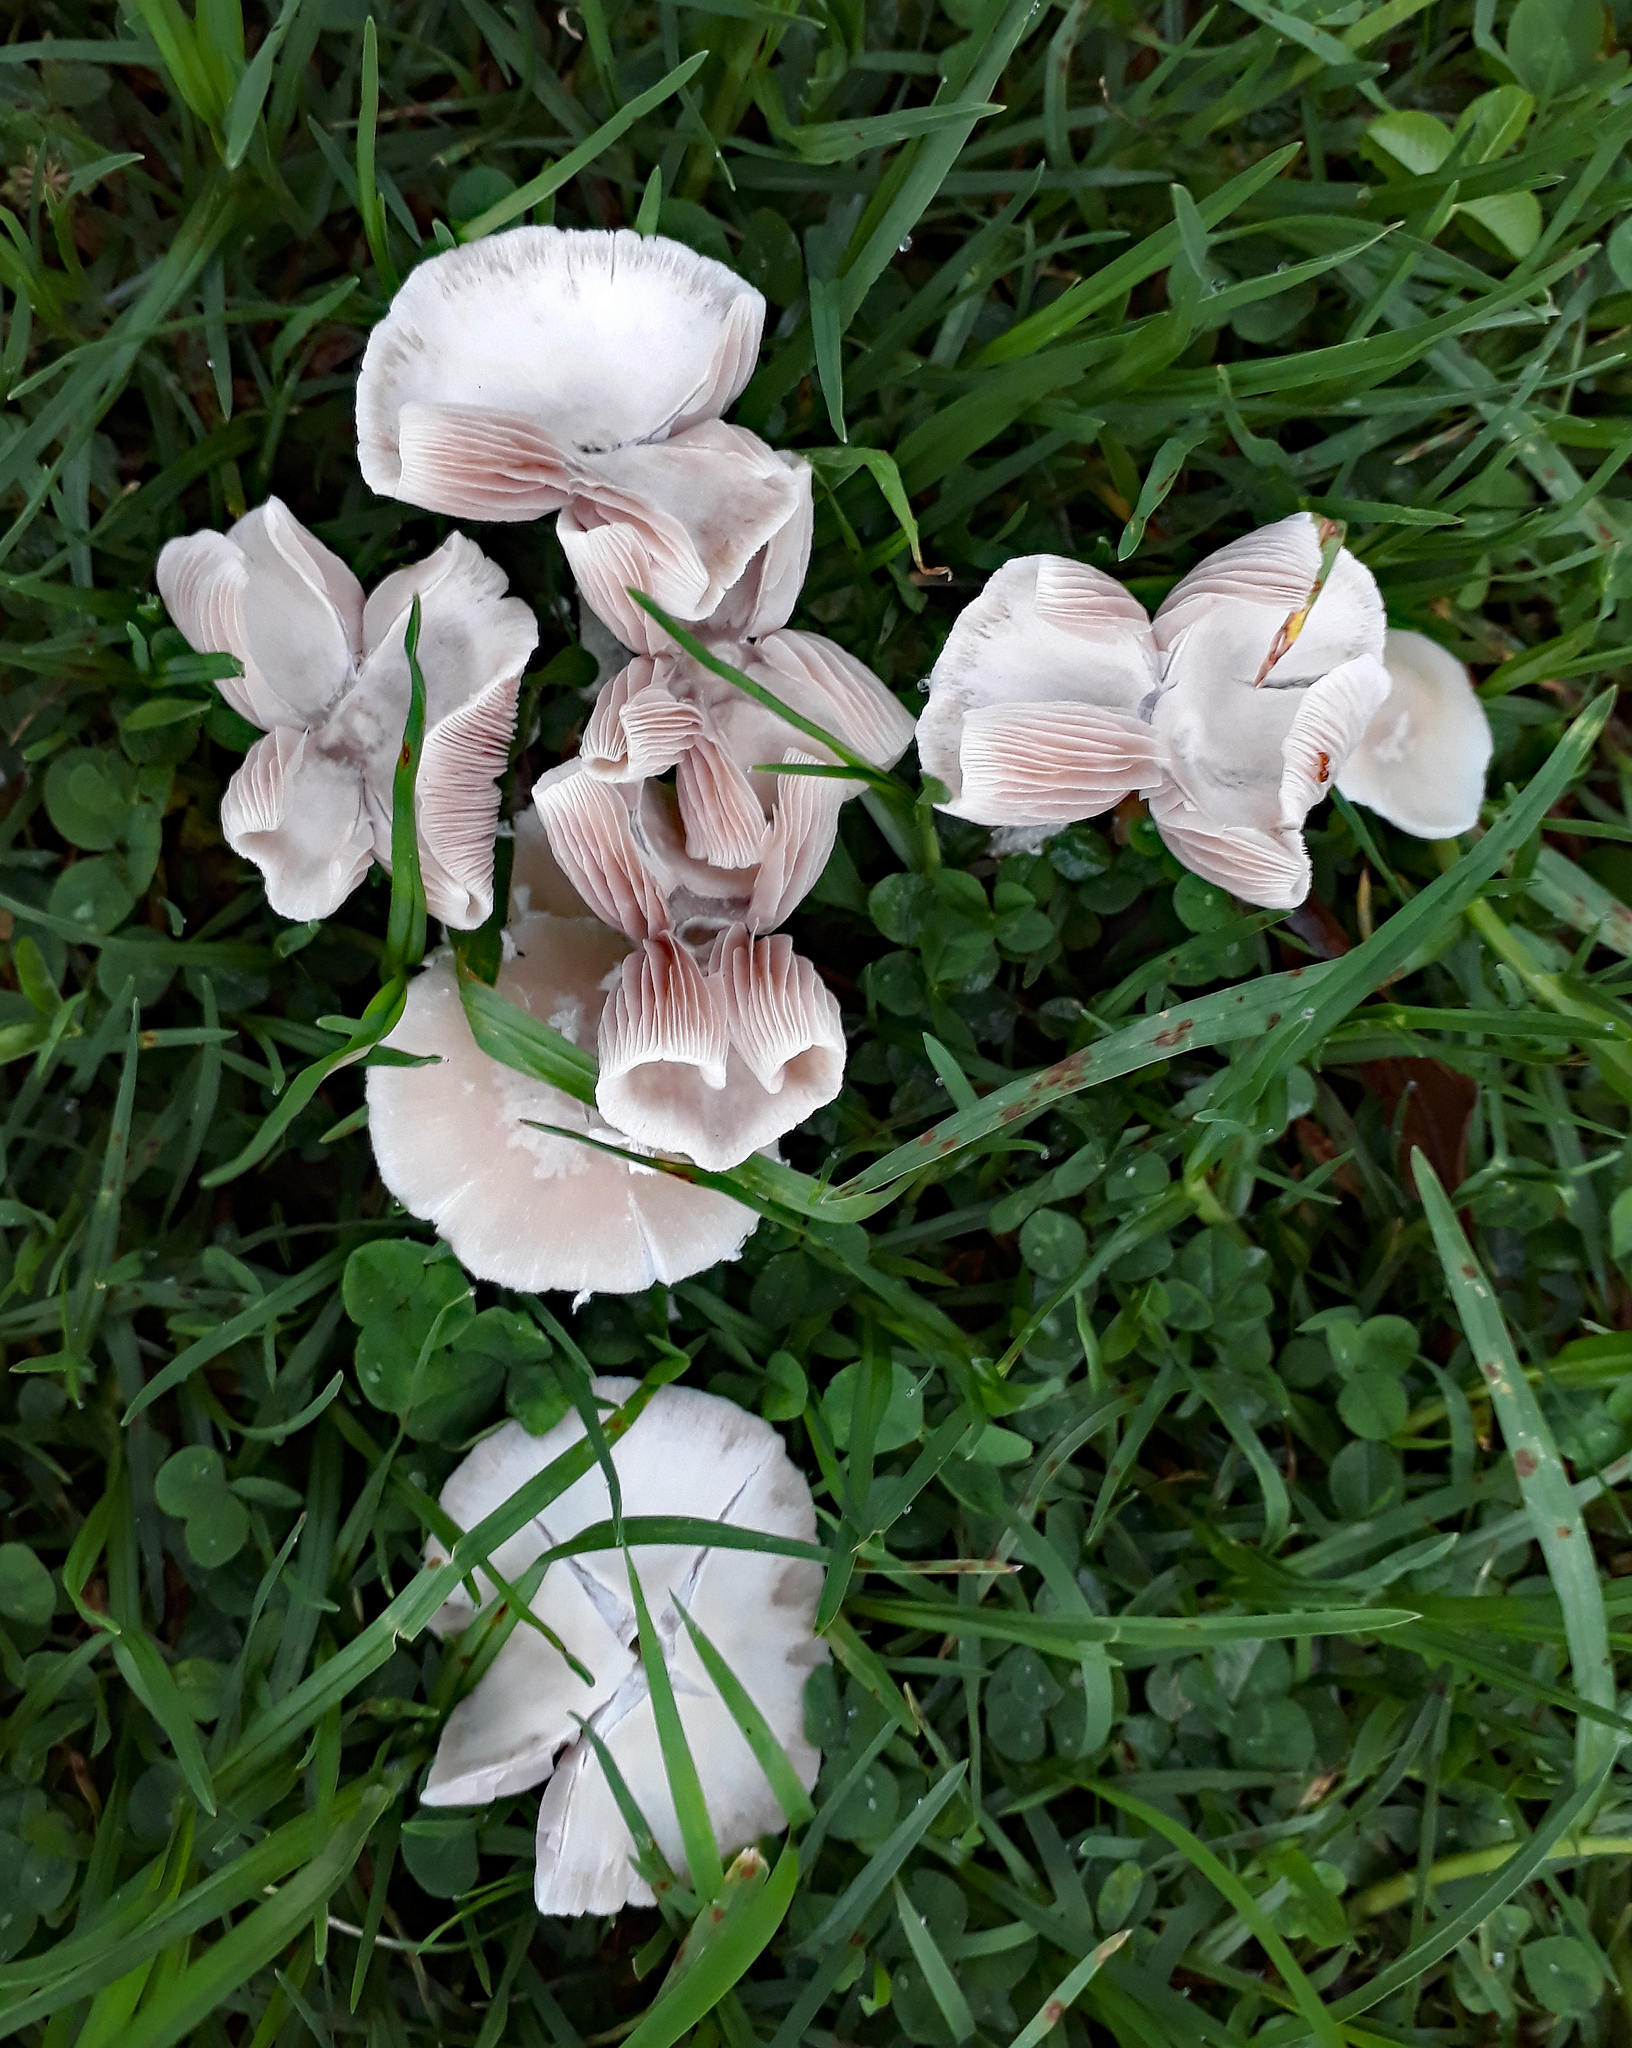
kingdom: Fungi
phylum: Basidiomycota
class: Agaricomycetes
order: Agaricales
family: Psathyrellaceae
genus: Candolleomyces
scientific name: Candolleomyces candolleanus
